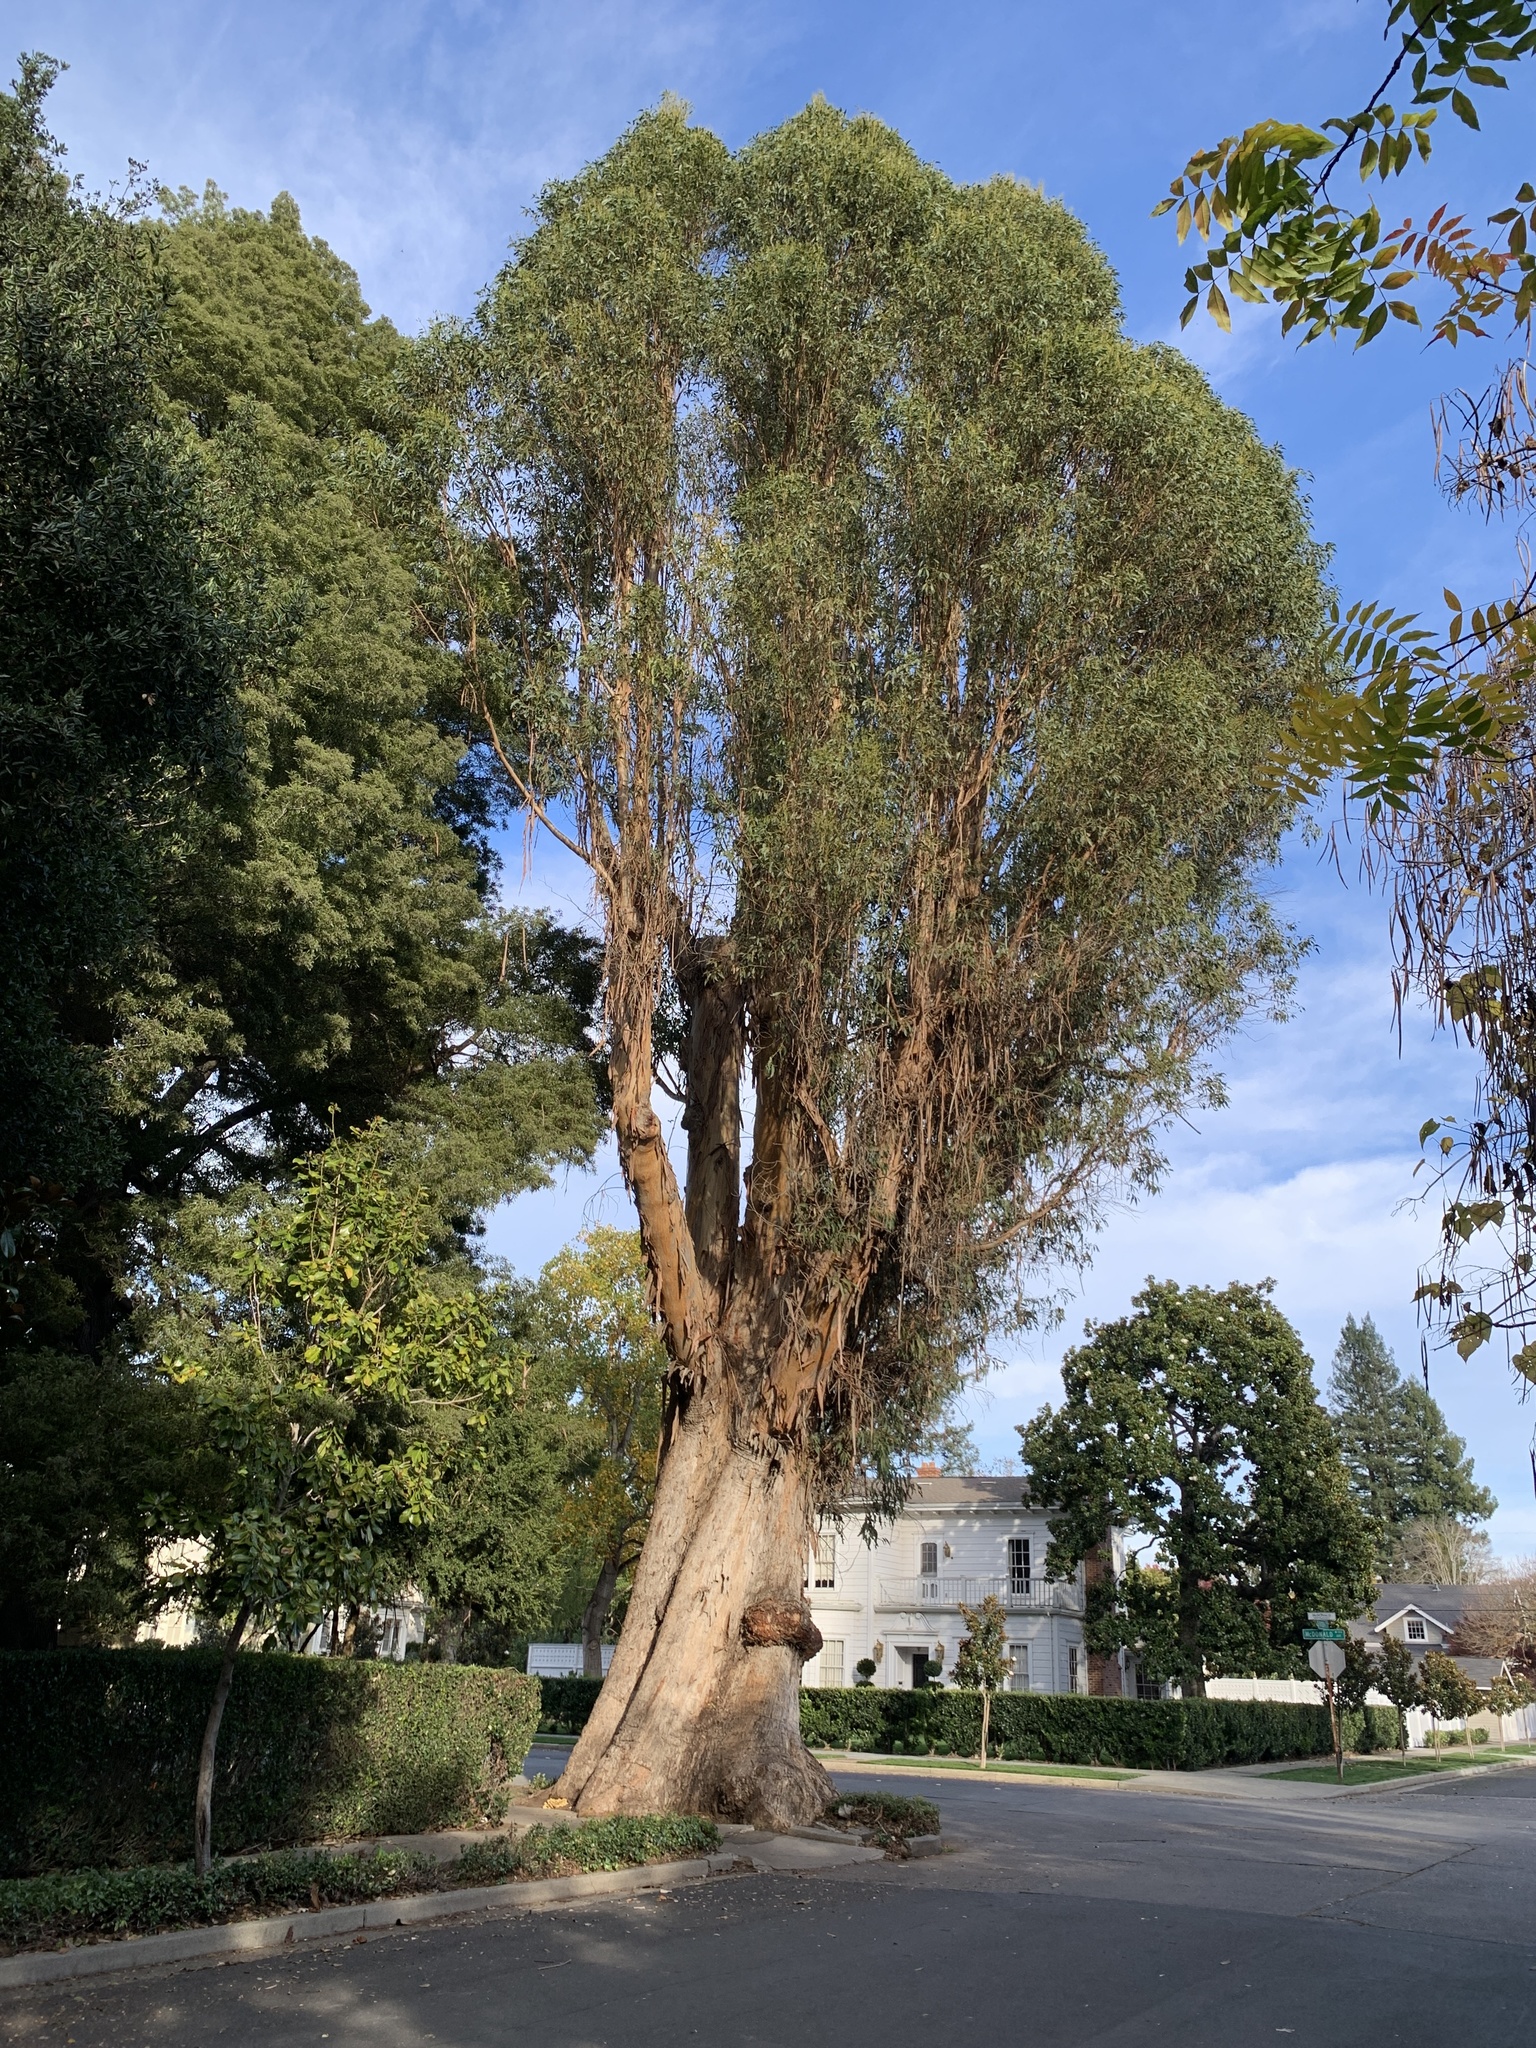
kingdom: Fungi
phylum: Basidiomycota
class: Agaricomycetes
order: Polyporales
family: Laetiporaceae
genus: Laetiporus
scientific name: Laetiporus gilbertsonii
